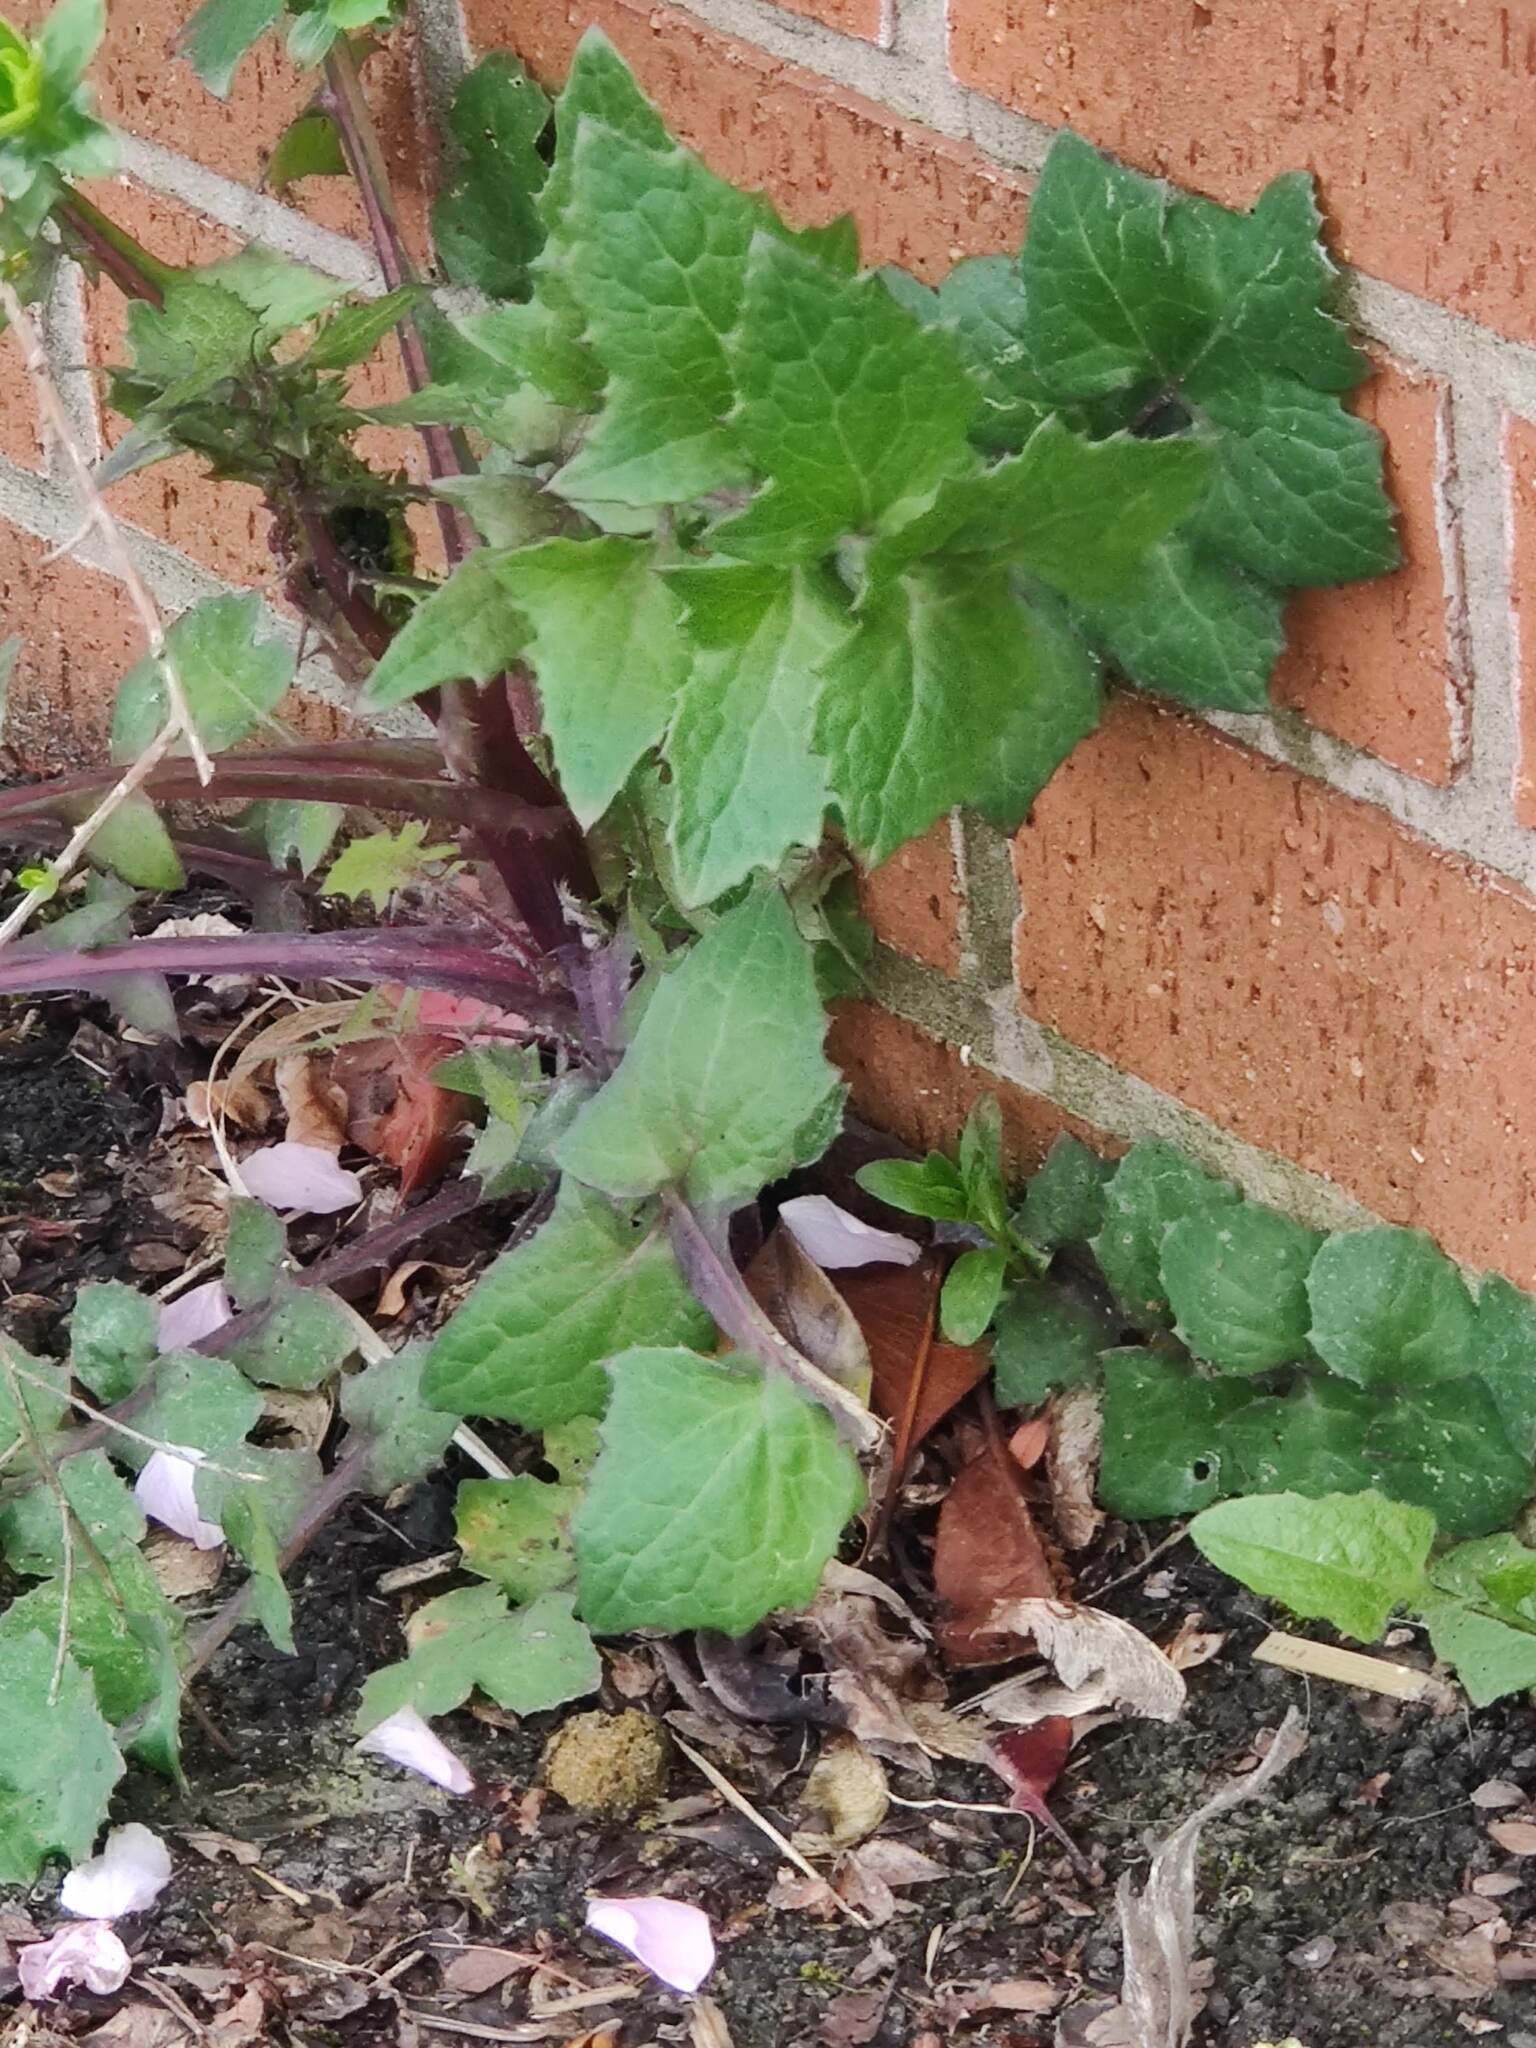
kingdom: Plantae
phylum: Tracheophyta
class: Magnoliopsida
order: Asterales
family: Asteraceae
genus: Sonchus
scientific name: Sonchus oleraceus
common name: Common sowthistle
